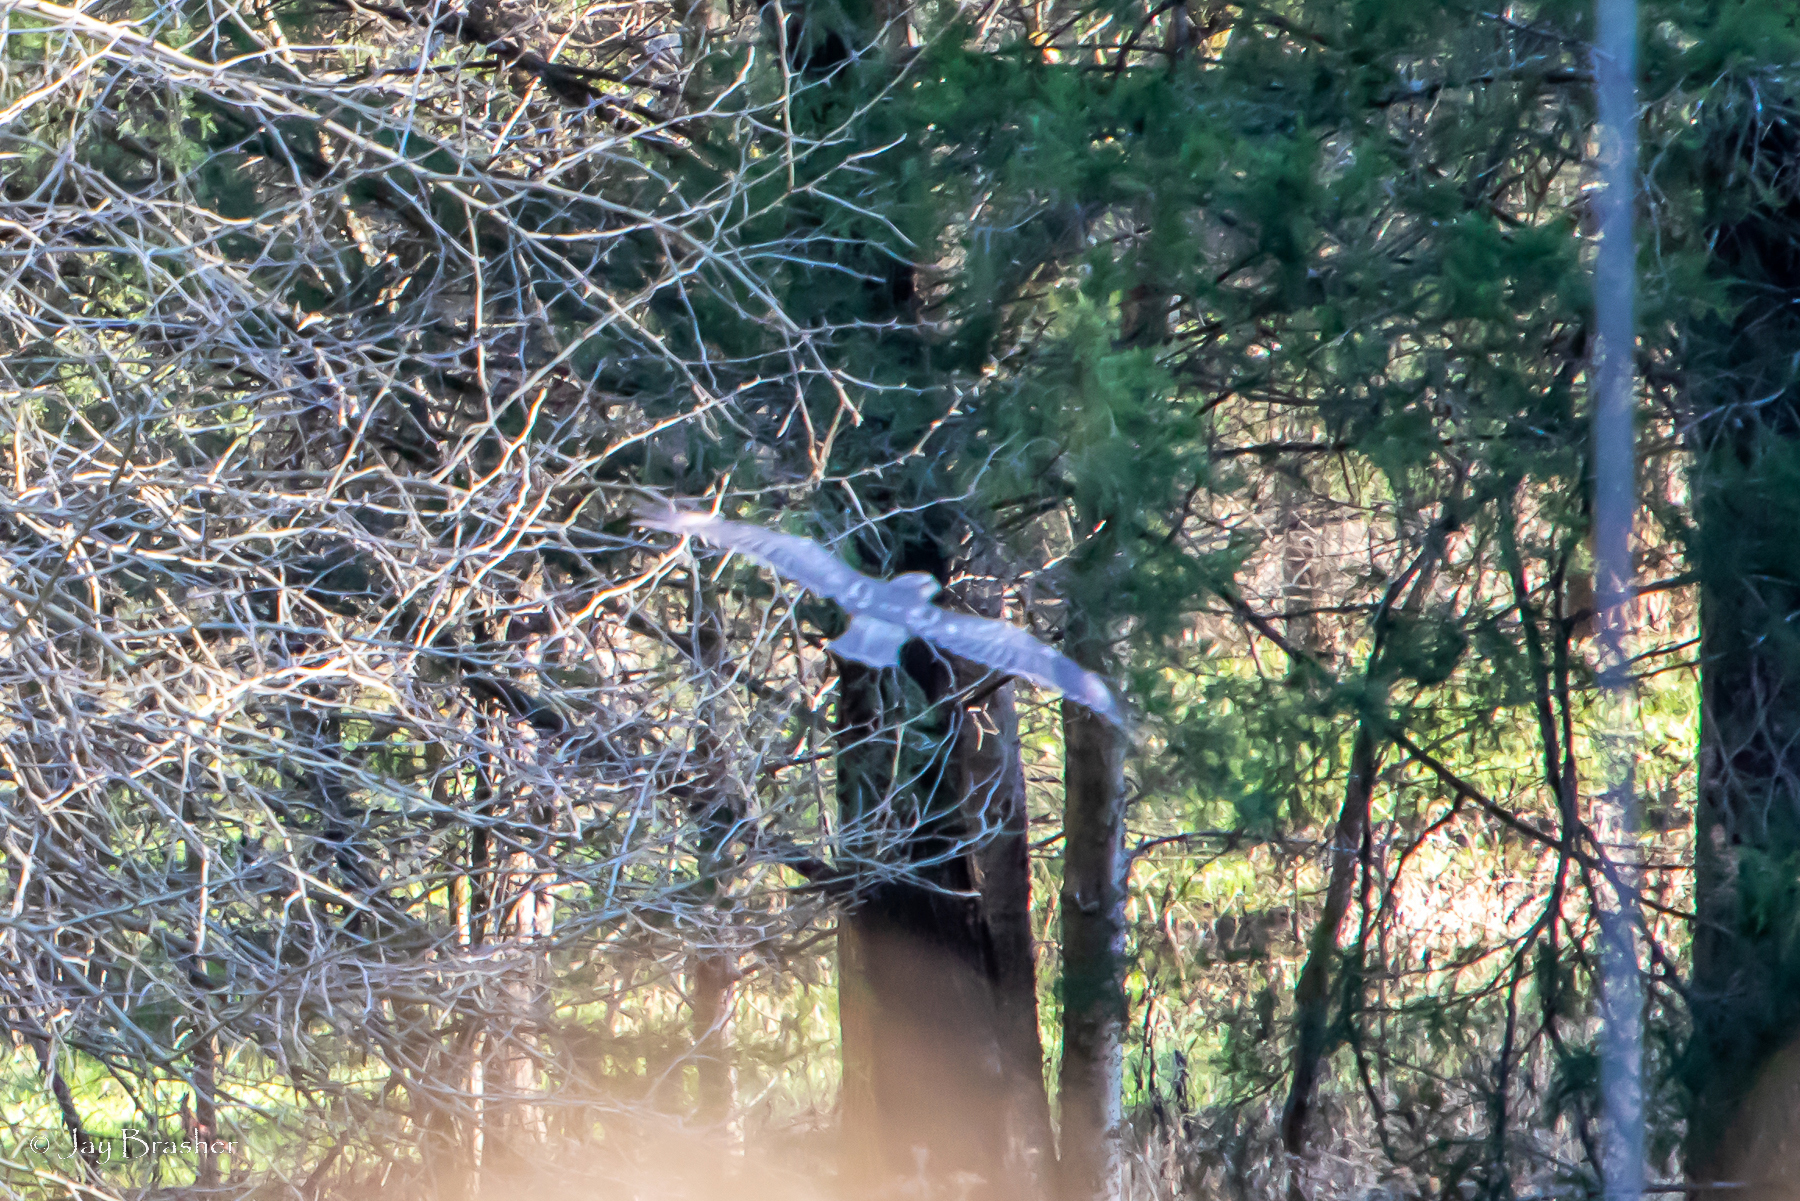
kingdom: Animalia
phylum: Chordata
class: Aves
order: Accipitriformes
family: Accipitridae
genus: Buteo
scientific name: Buteo lineatus
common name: Red-shouldered hawk
